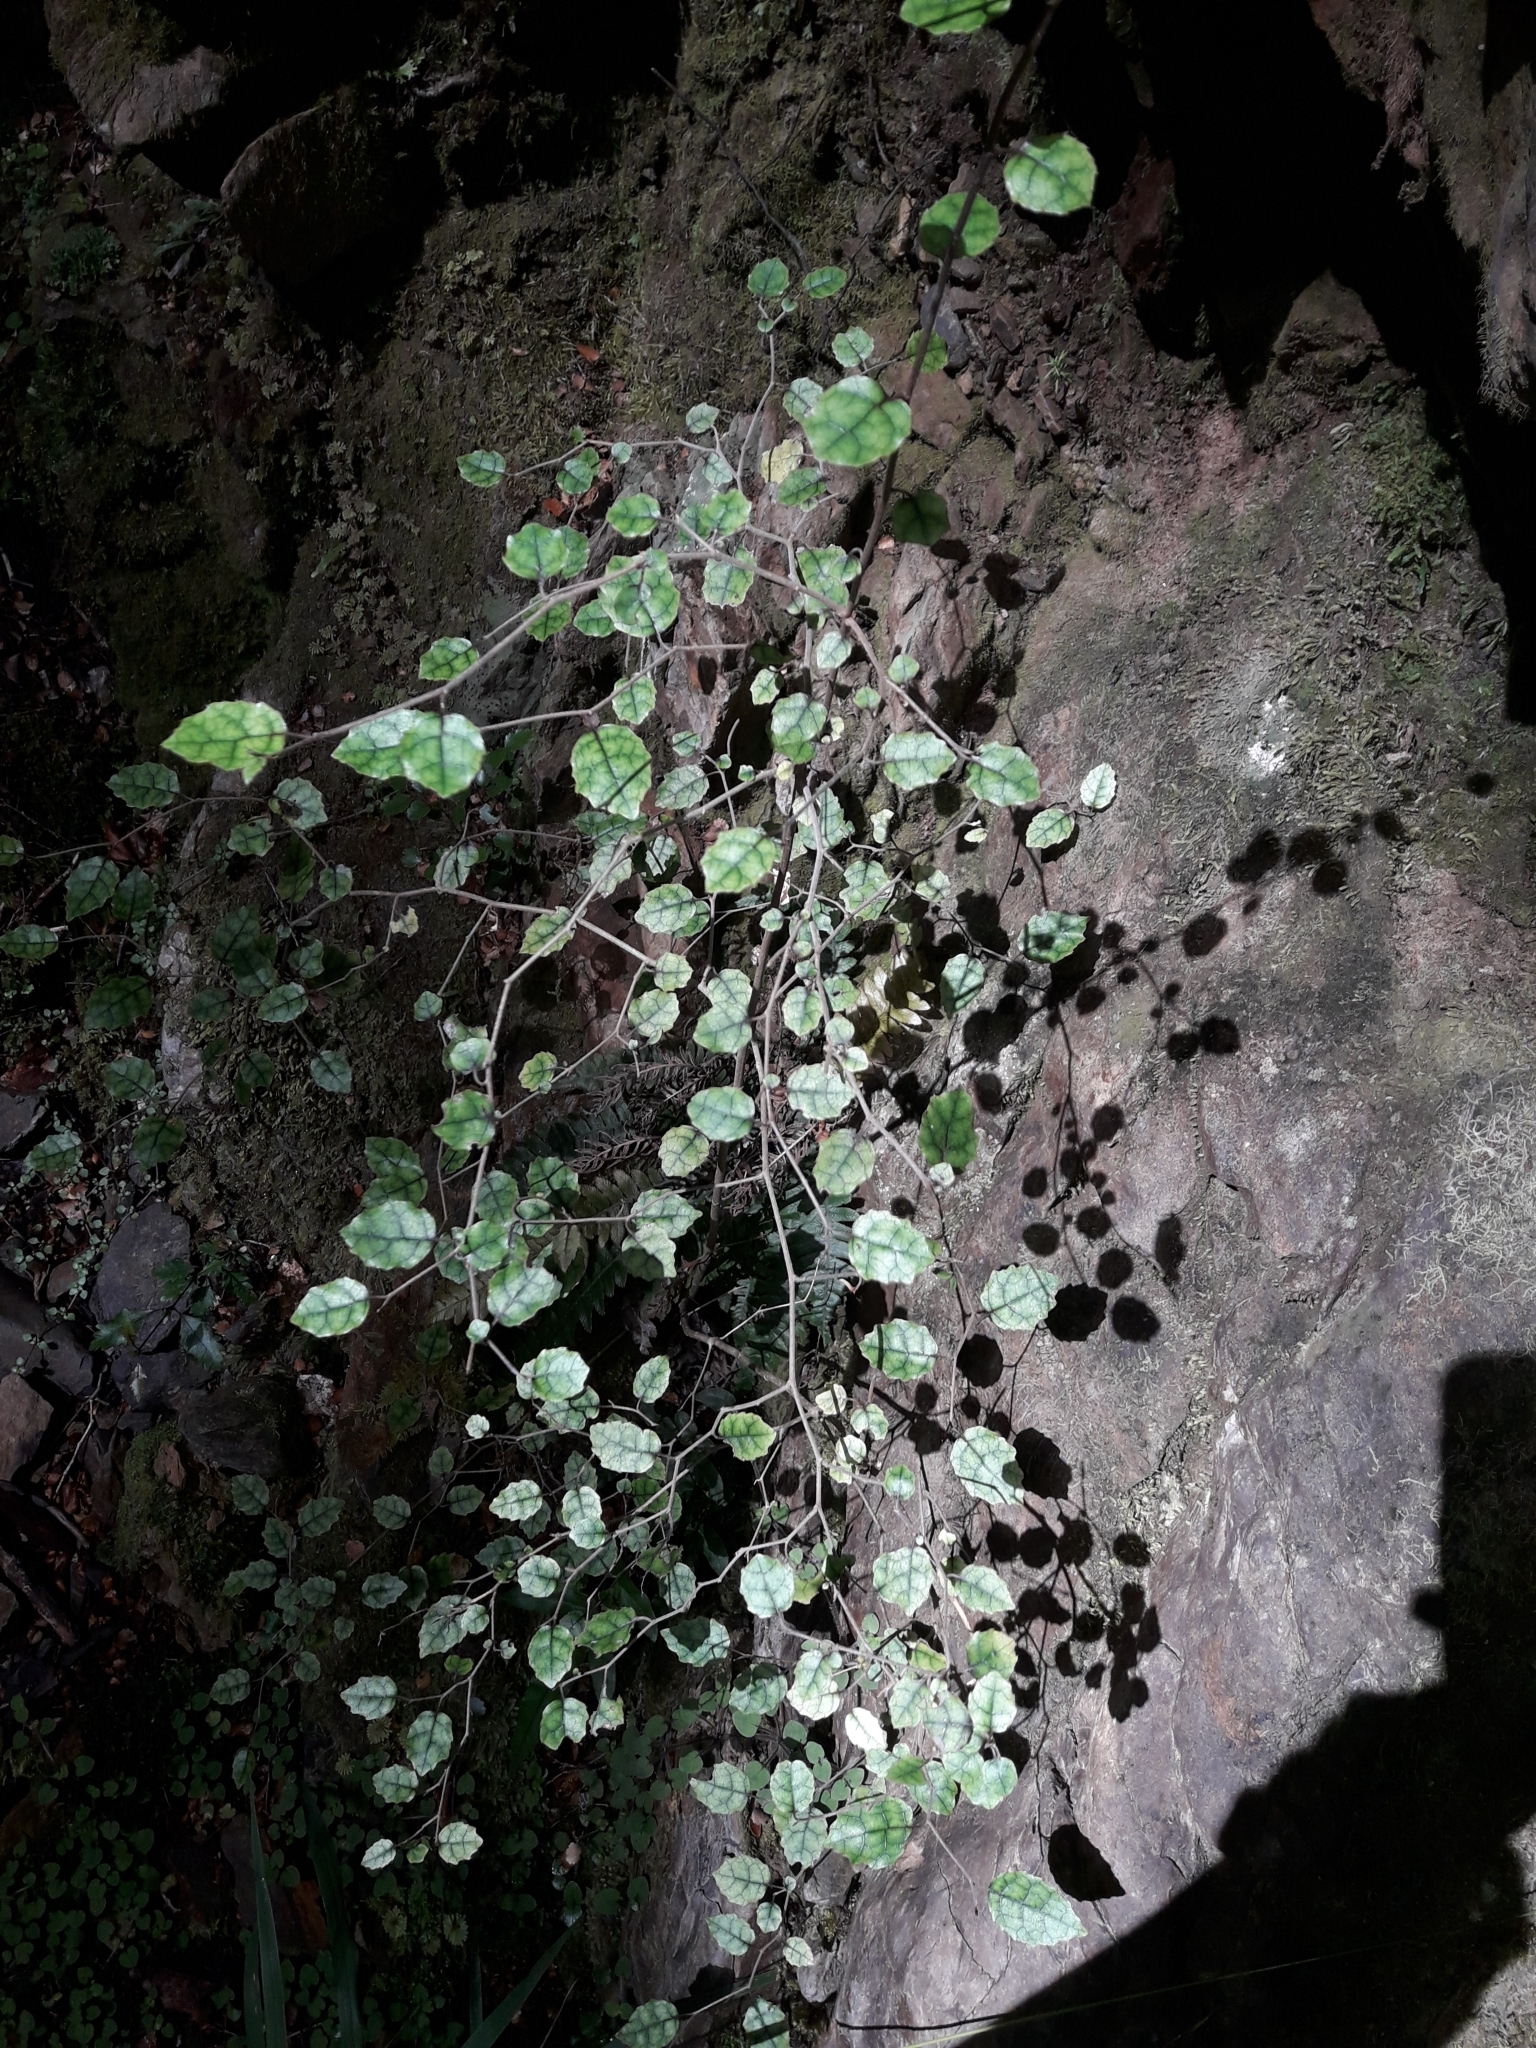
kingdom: Plantae
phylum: Tracheophyta
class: Magnoliopsida
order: Asterales
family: Rousseaceae
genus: Carpodetus
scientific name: Carpodetus serratus
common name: White mapau
